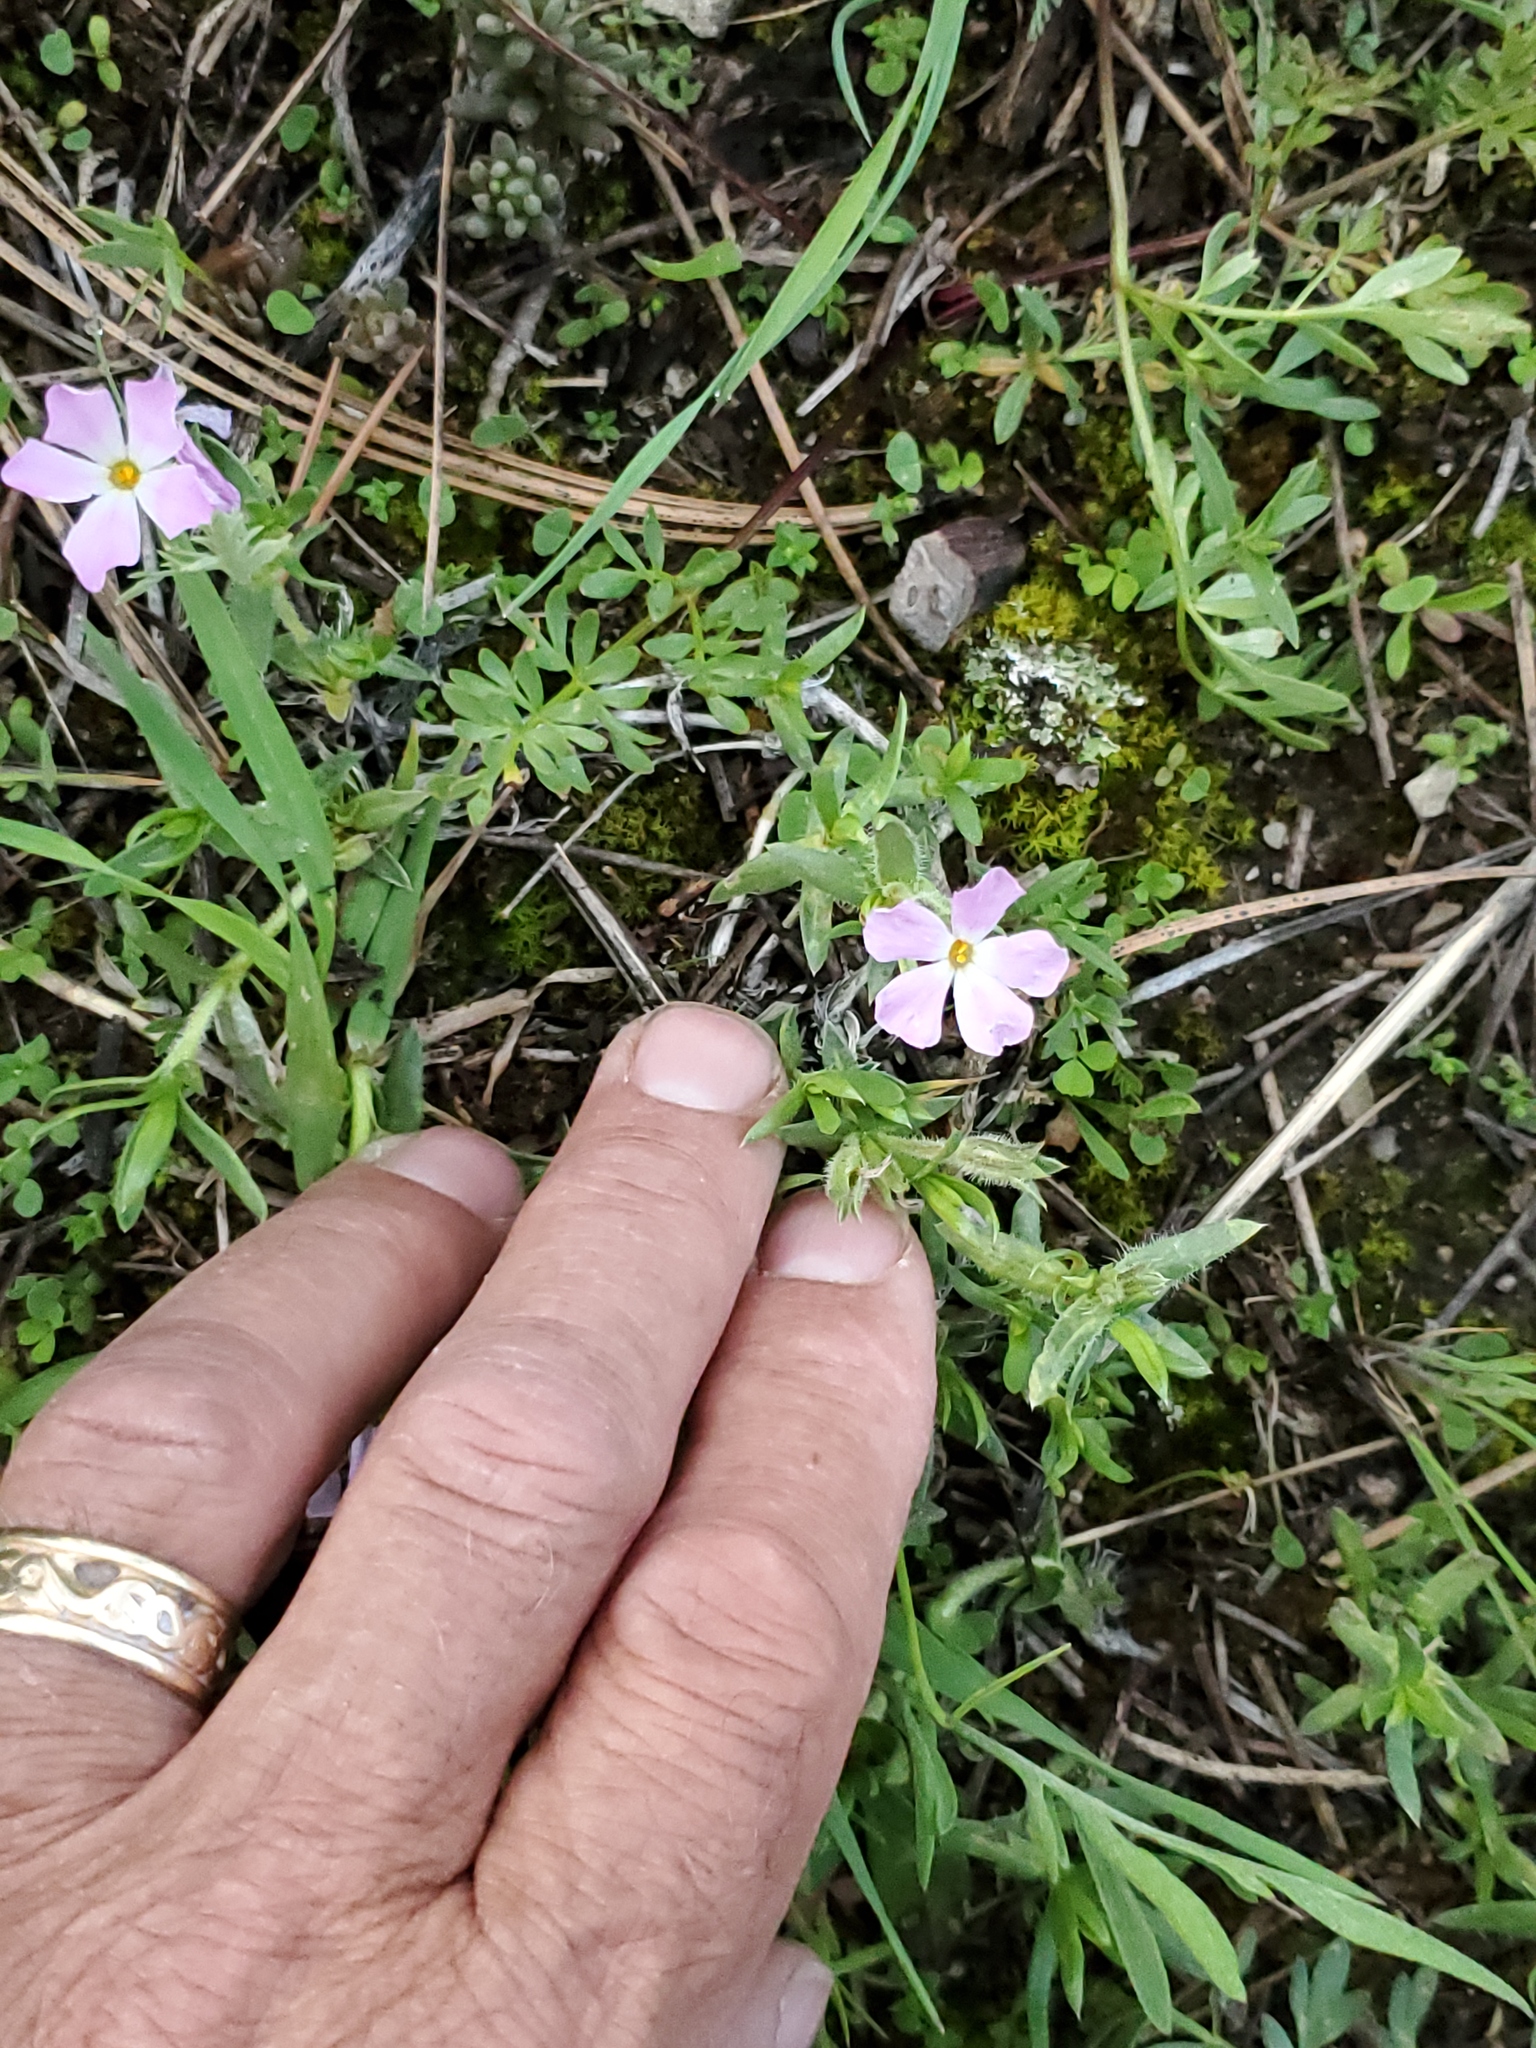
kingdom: Plantae
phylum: Tracheophyta
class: Magnoliopsida
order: Ericales
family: Polemoniaceae
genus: Phlox
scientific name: Phlox alyssifolia
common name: Blue phlox
